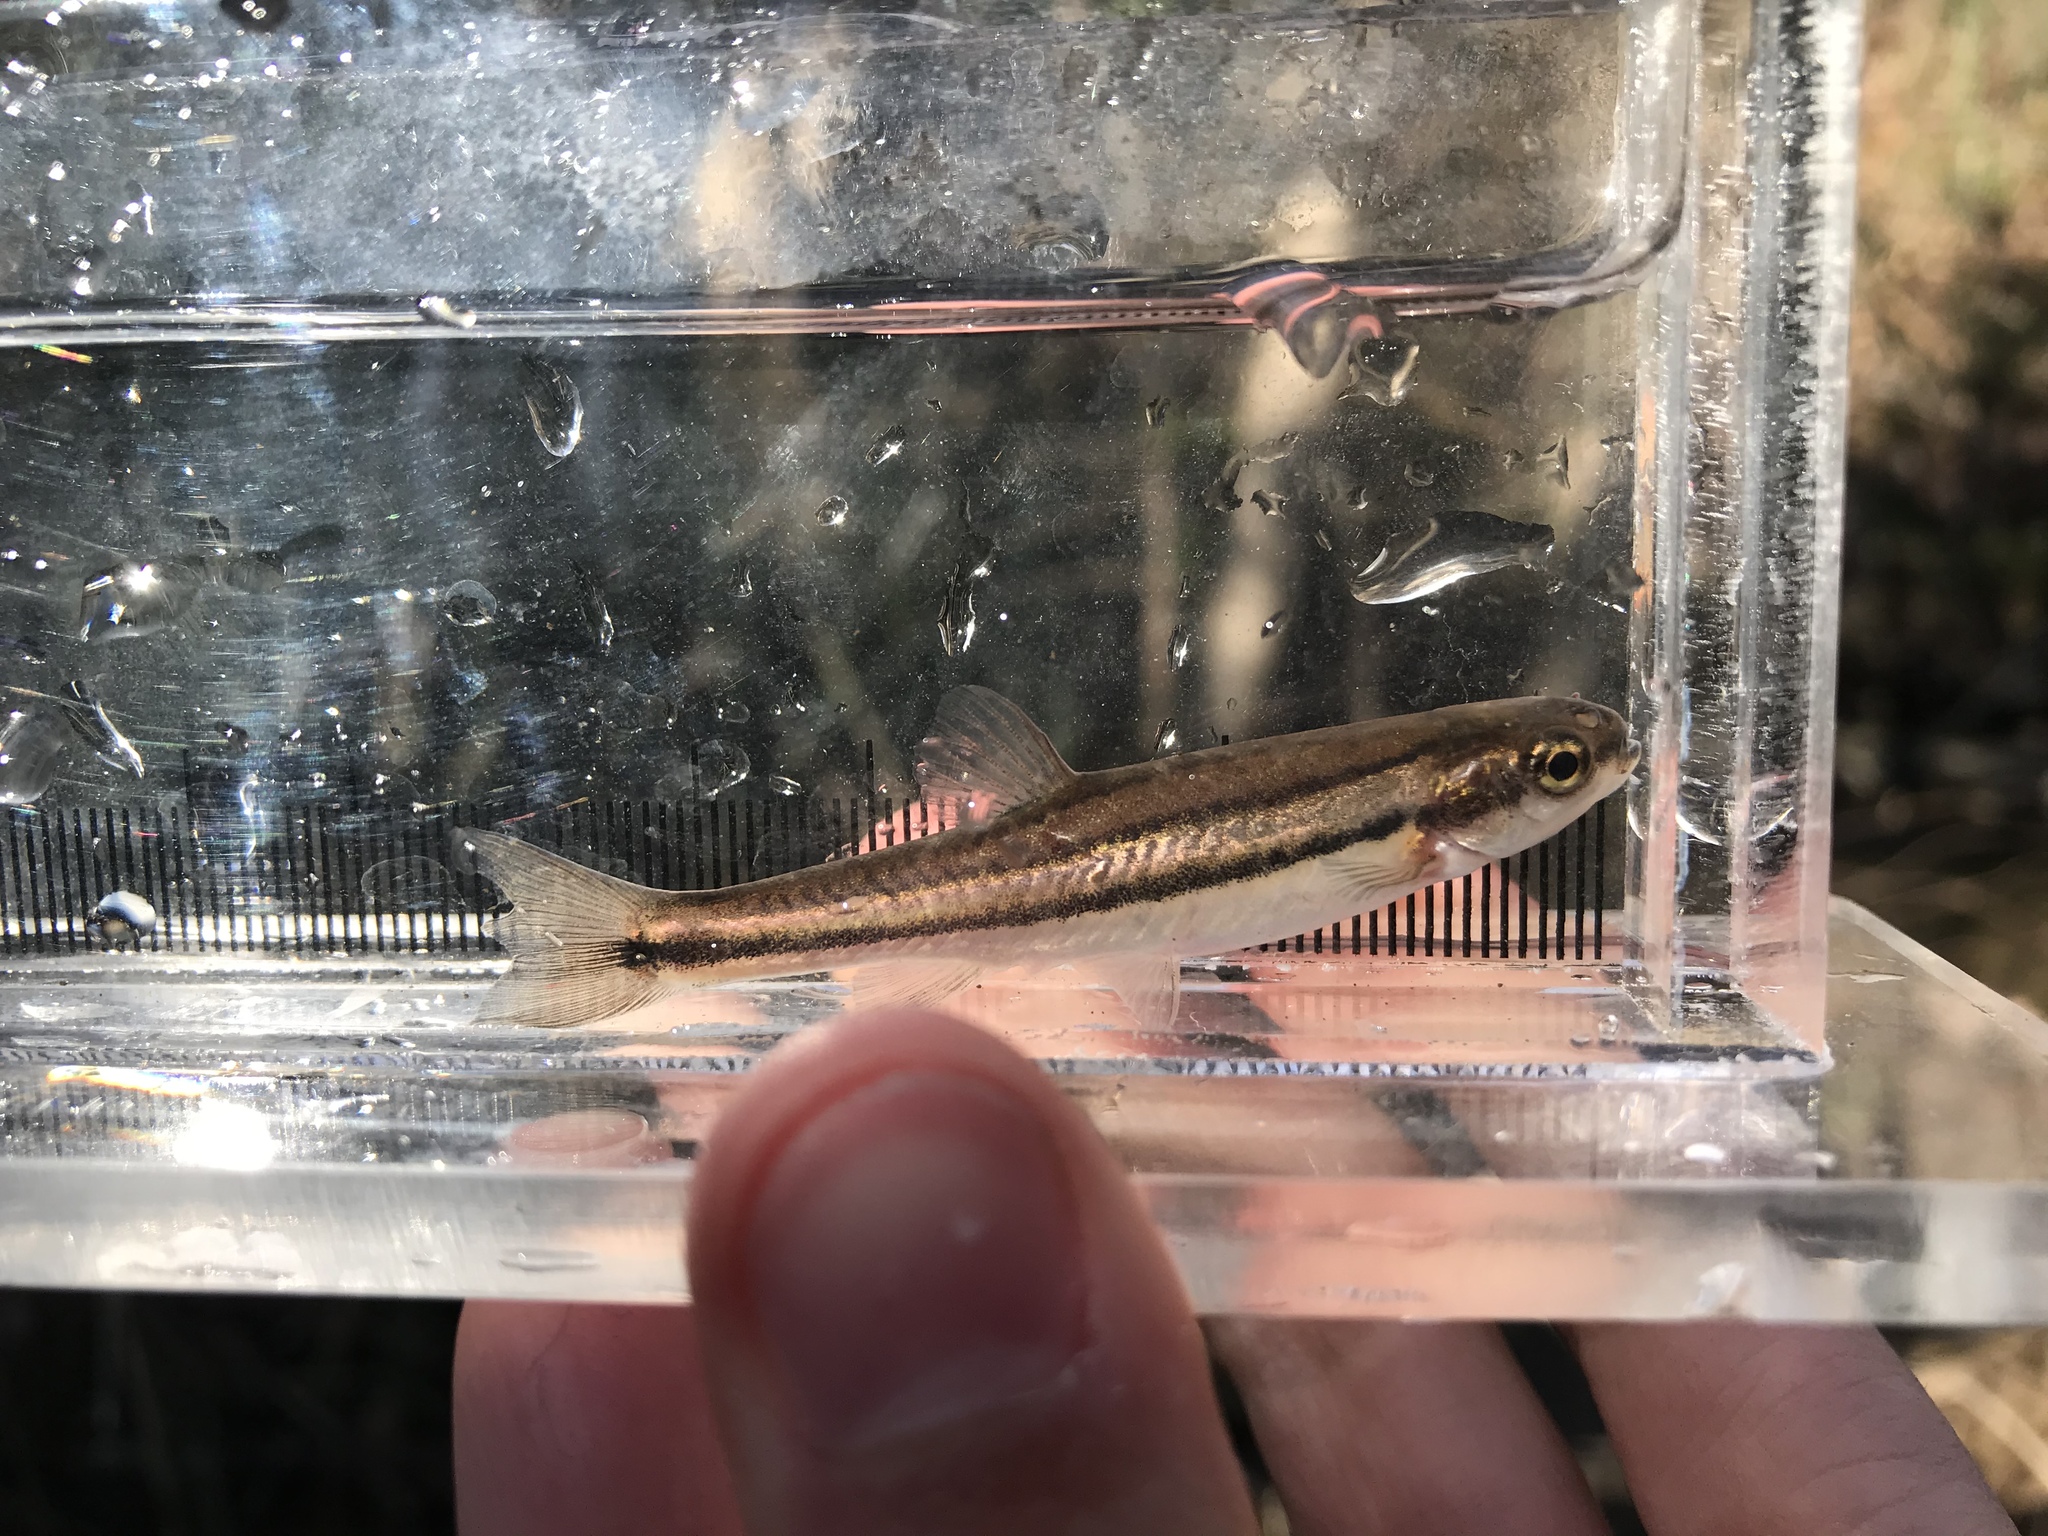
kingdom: Animalia
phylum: Chordata
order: Cypriniformes
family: Cyprinidae
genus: Chrosomus
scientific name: Chrosomus eos
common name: Northern redbelly dace
